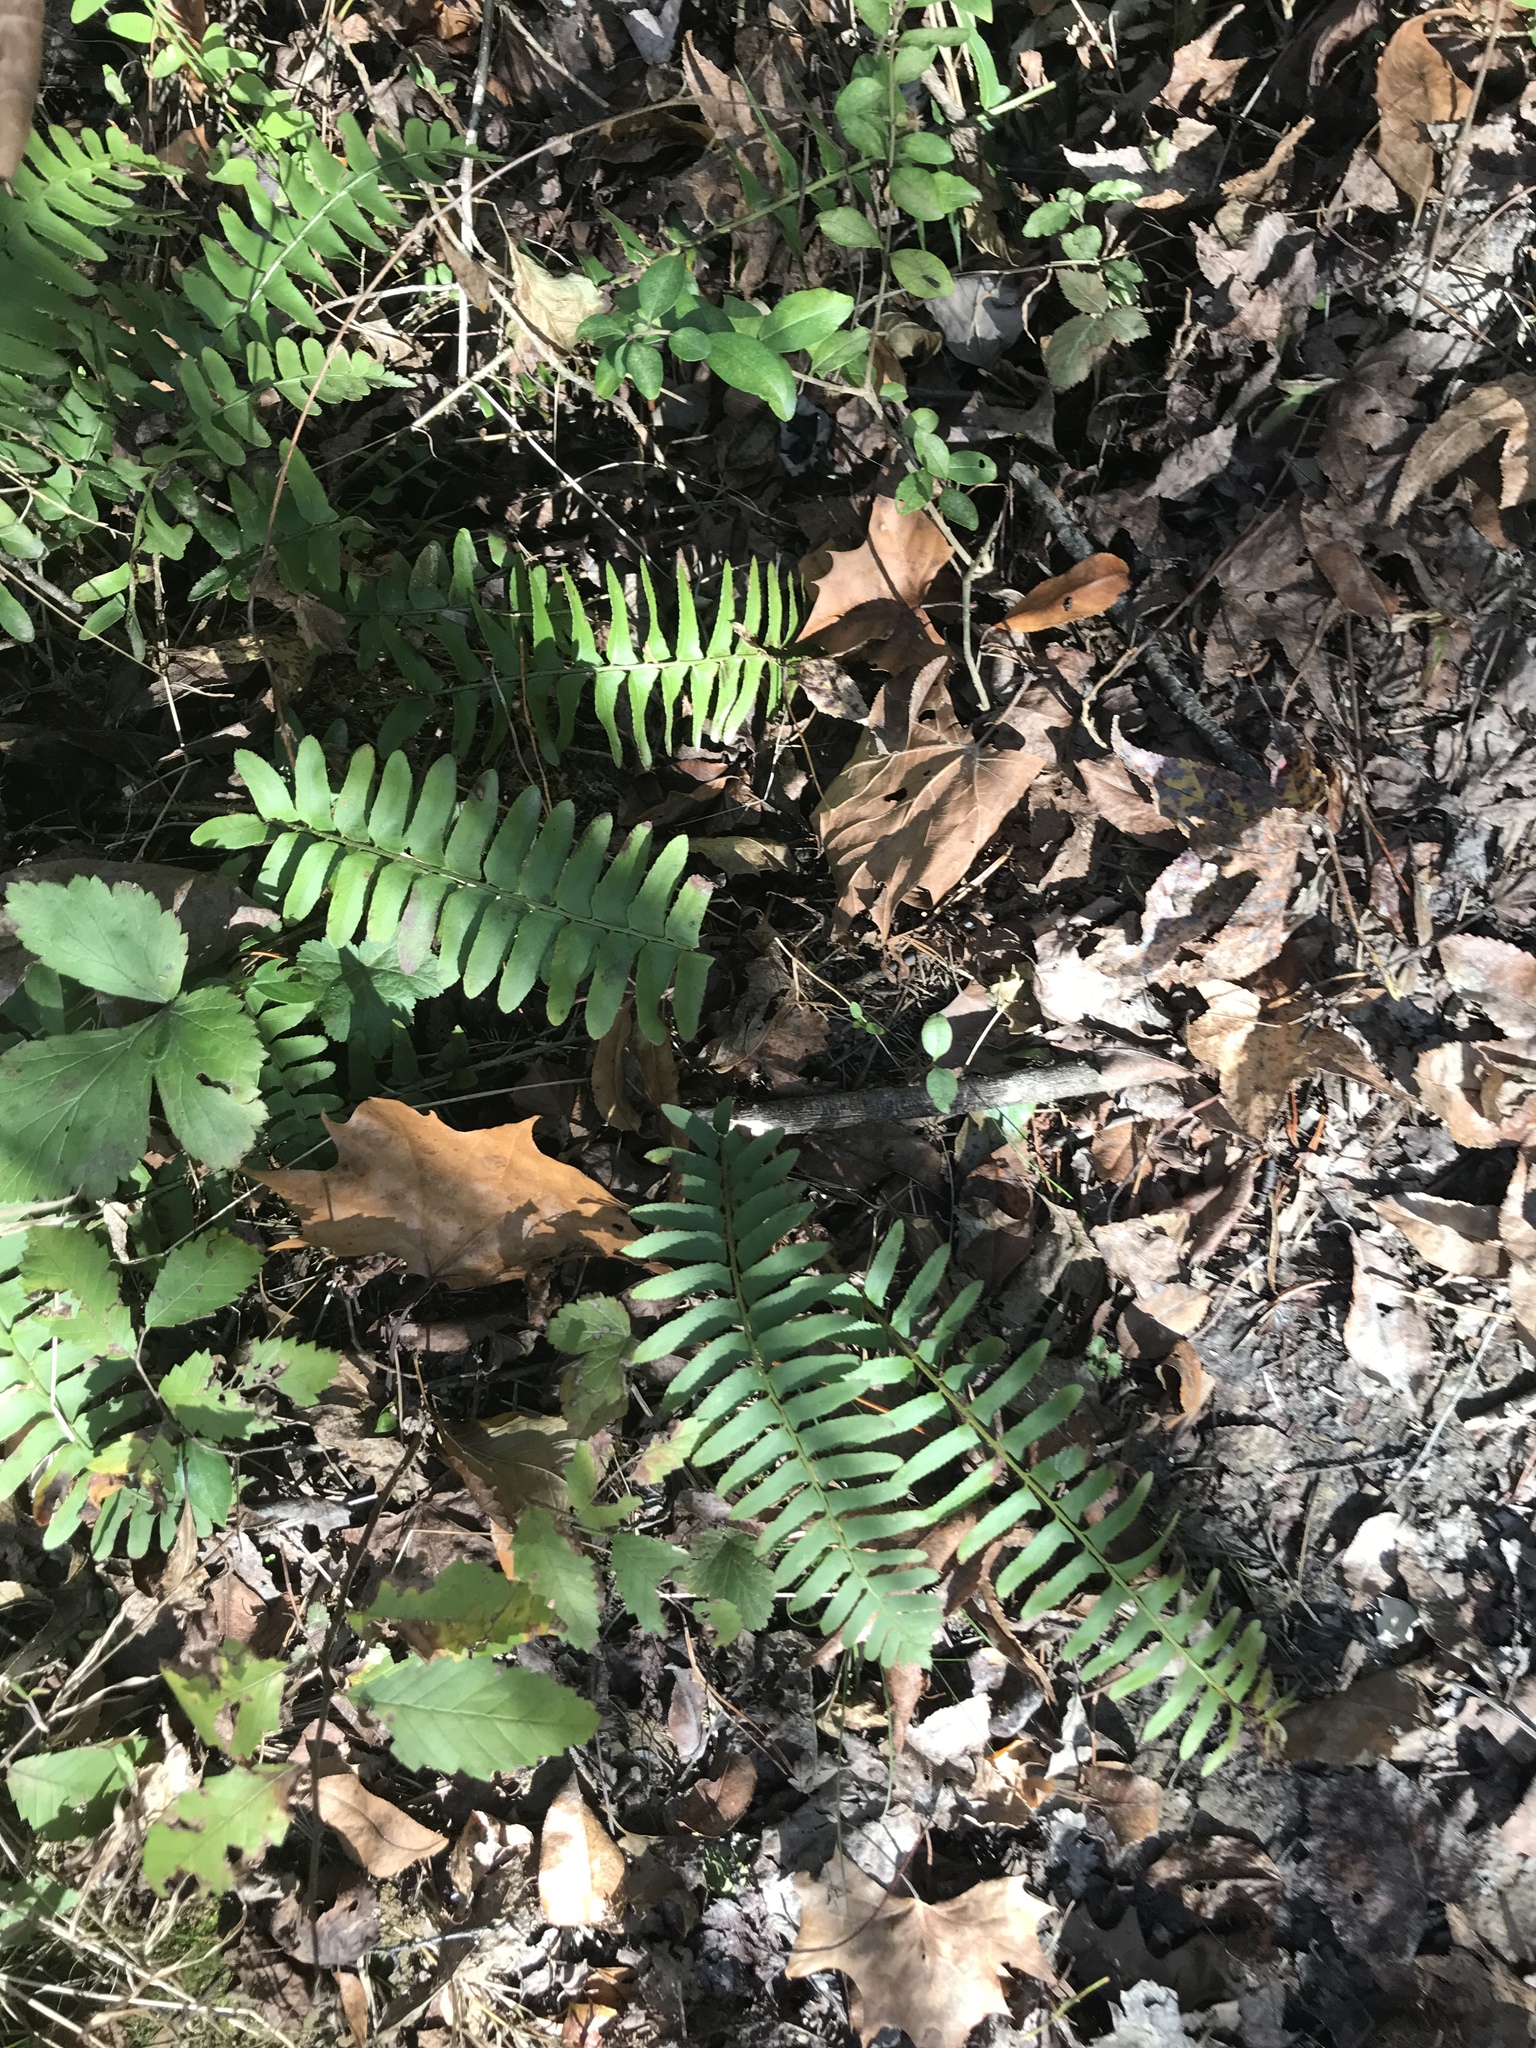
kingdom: Plantae
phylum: Tracheophyta
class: Polypodiopsida
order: Polypodiales
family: Dryopteridaceae
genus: Polystichum
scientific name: Polystichum acrostichoides
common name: Christmas fern
